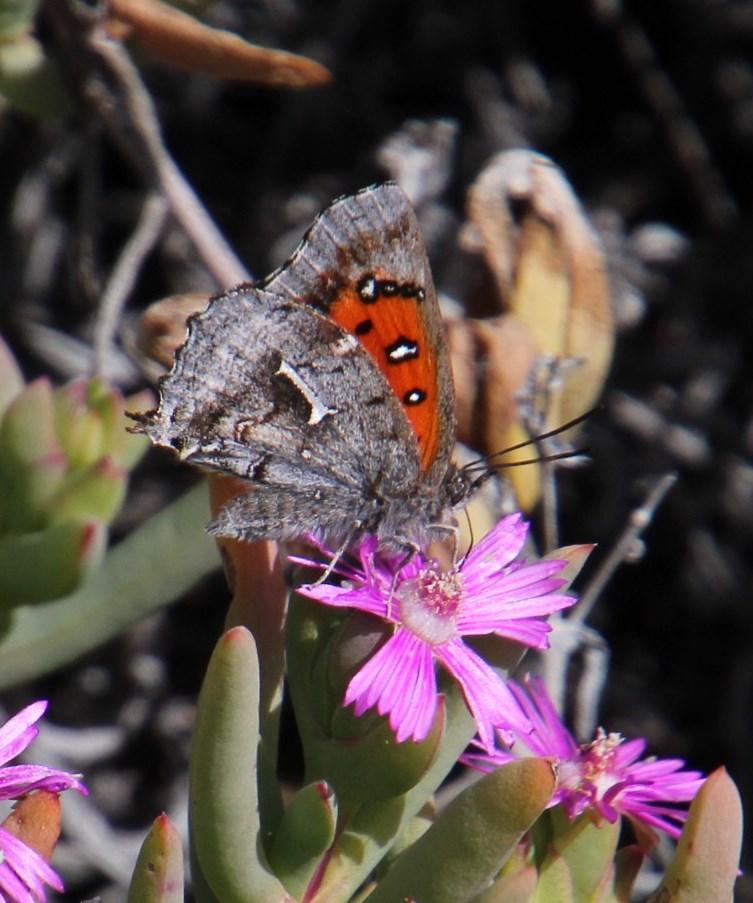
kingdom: Animalia
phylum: Arthropoda
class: Insecta
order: Lepidoptera
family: Lycaenidae
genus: Phasis
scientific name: Phasis clavum
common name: Namaqua arrowhead
